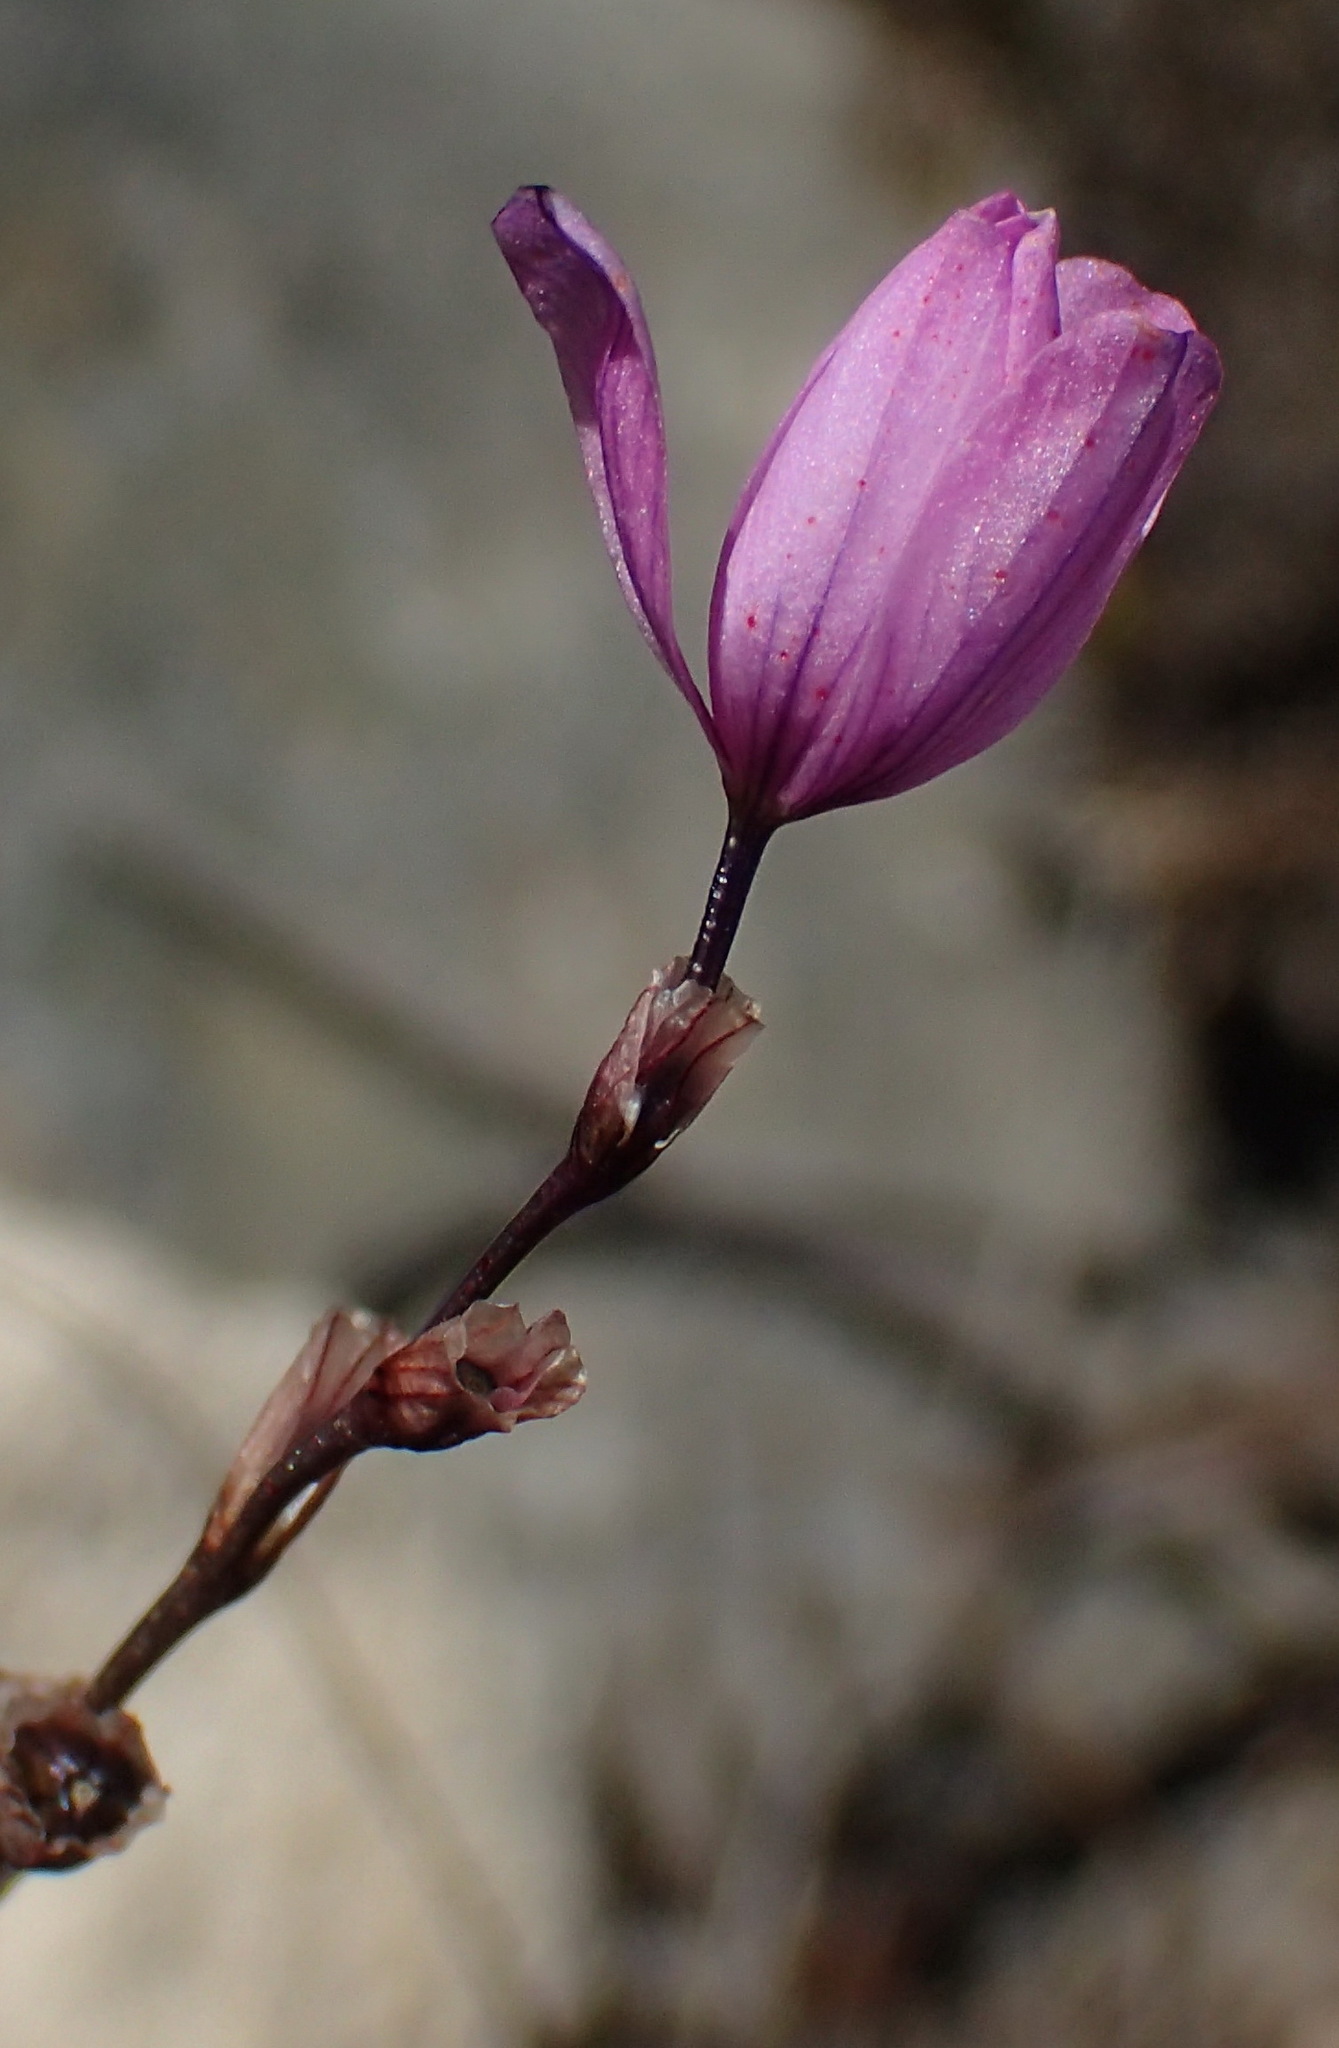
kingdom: Plantae
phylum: Tracheophyta
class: Liliopsida
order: Asparagales
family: Iridaceae
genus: Ixia
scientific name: Ixia confusa
